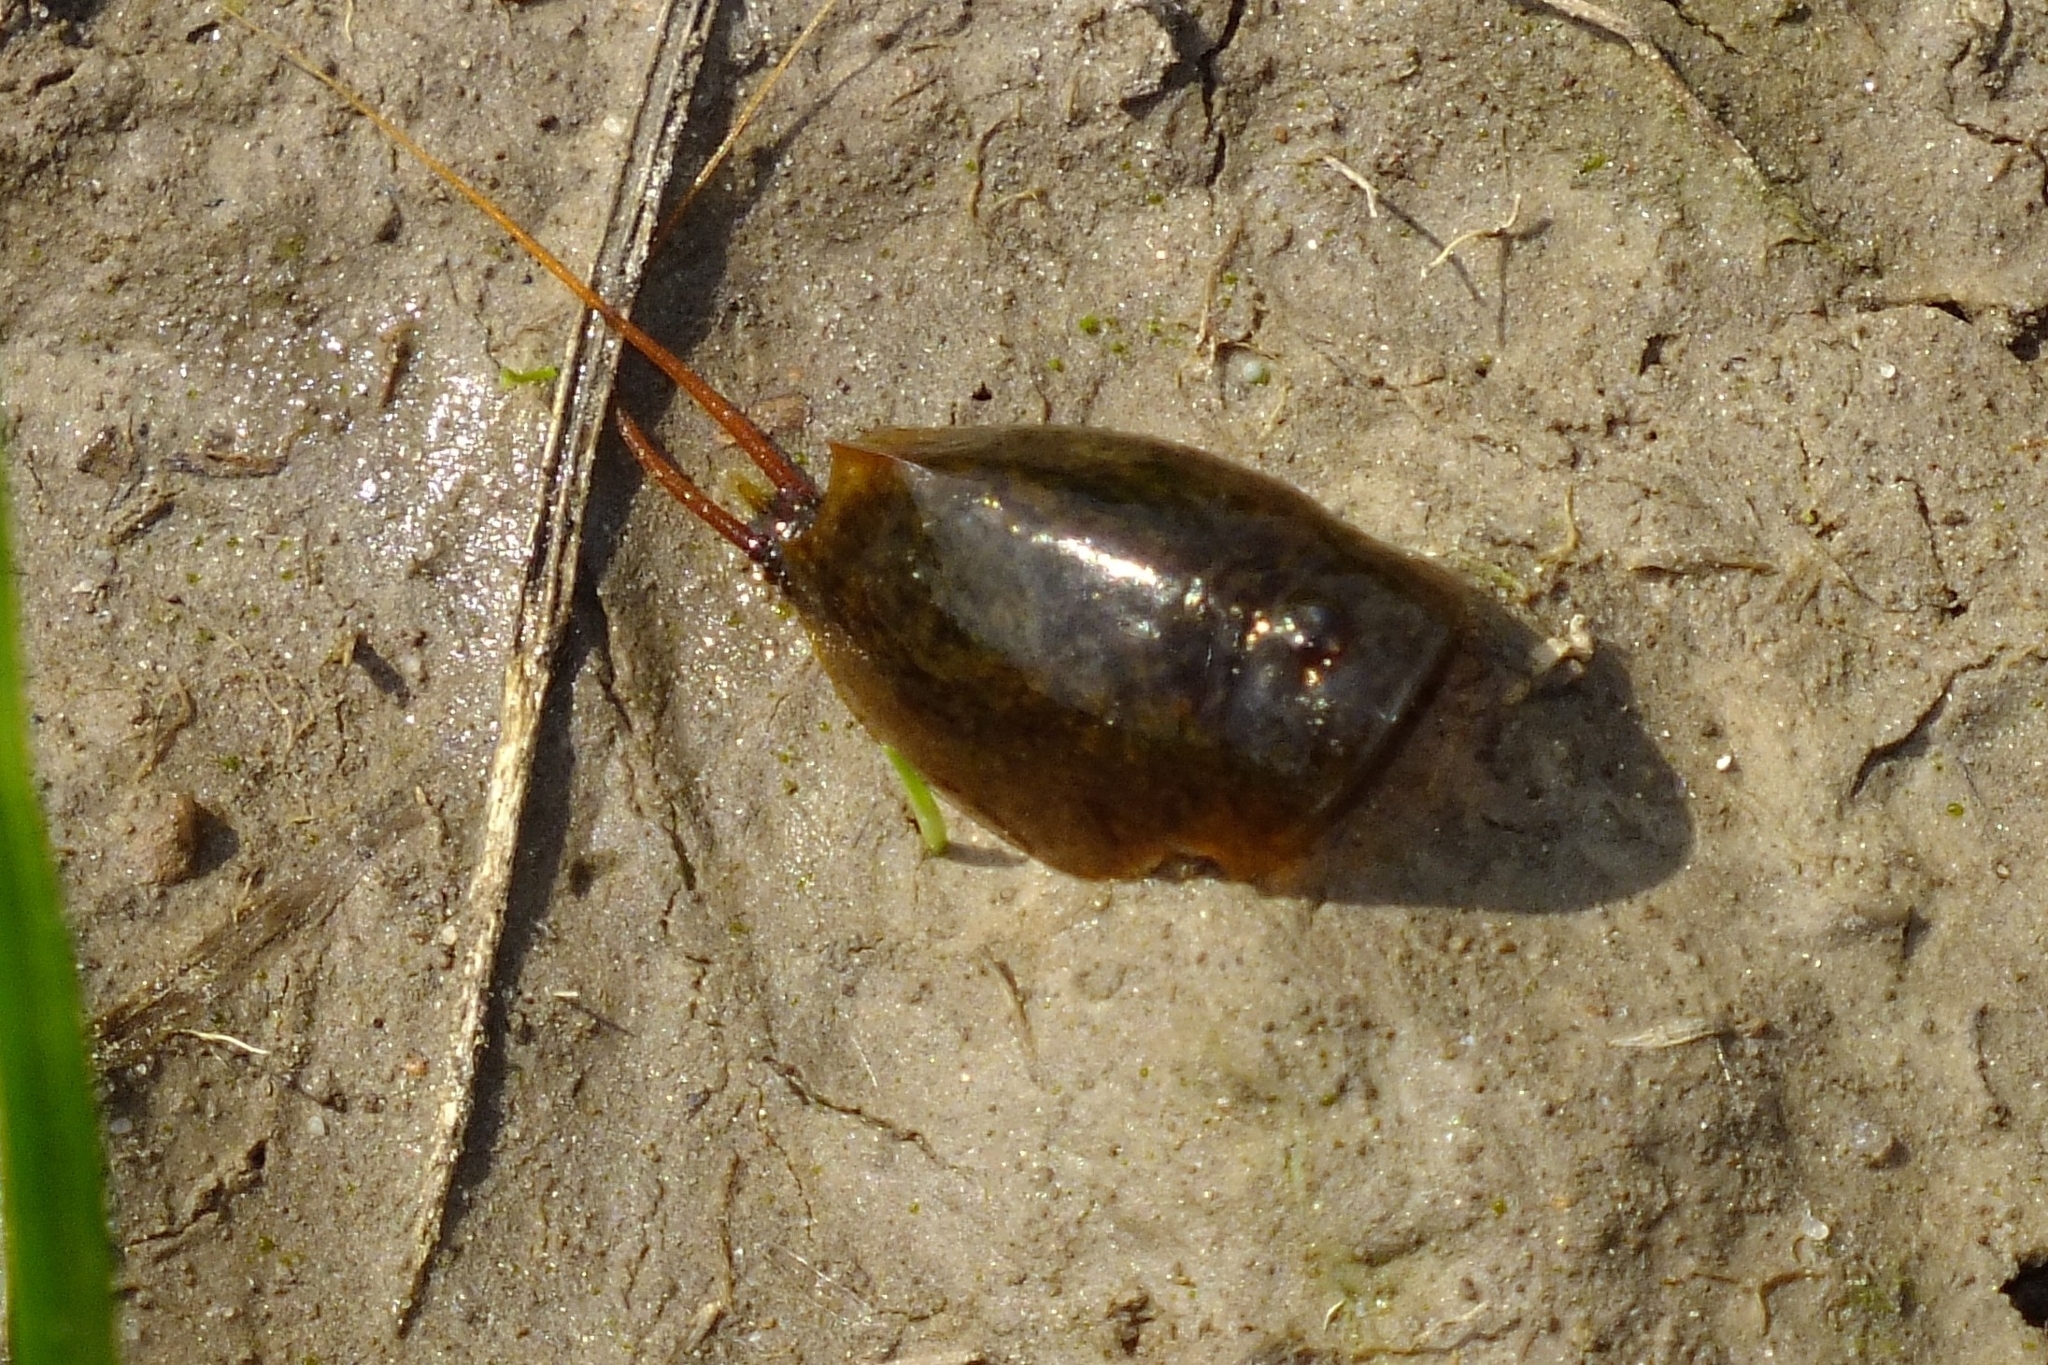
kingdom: Animalia
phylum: Arthropoda
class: Branchiopoda
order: Notostraca
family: Triopsidae
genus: Lepidurus
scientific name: Lepidurus apus
